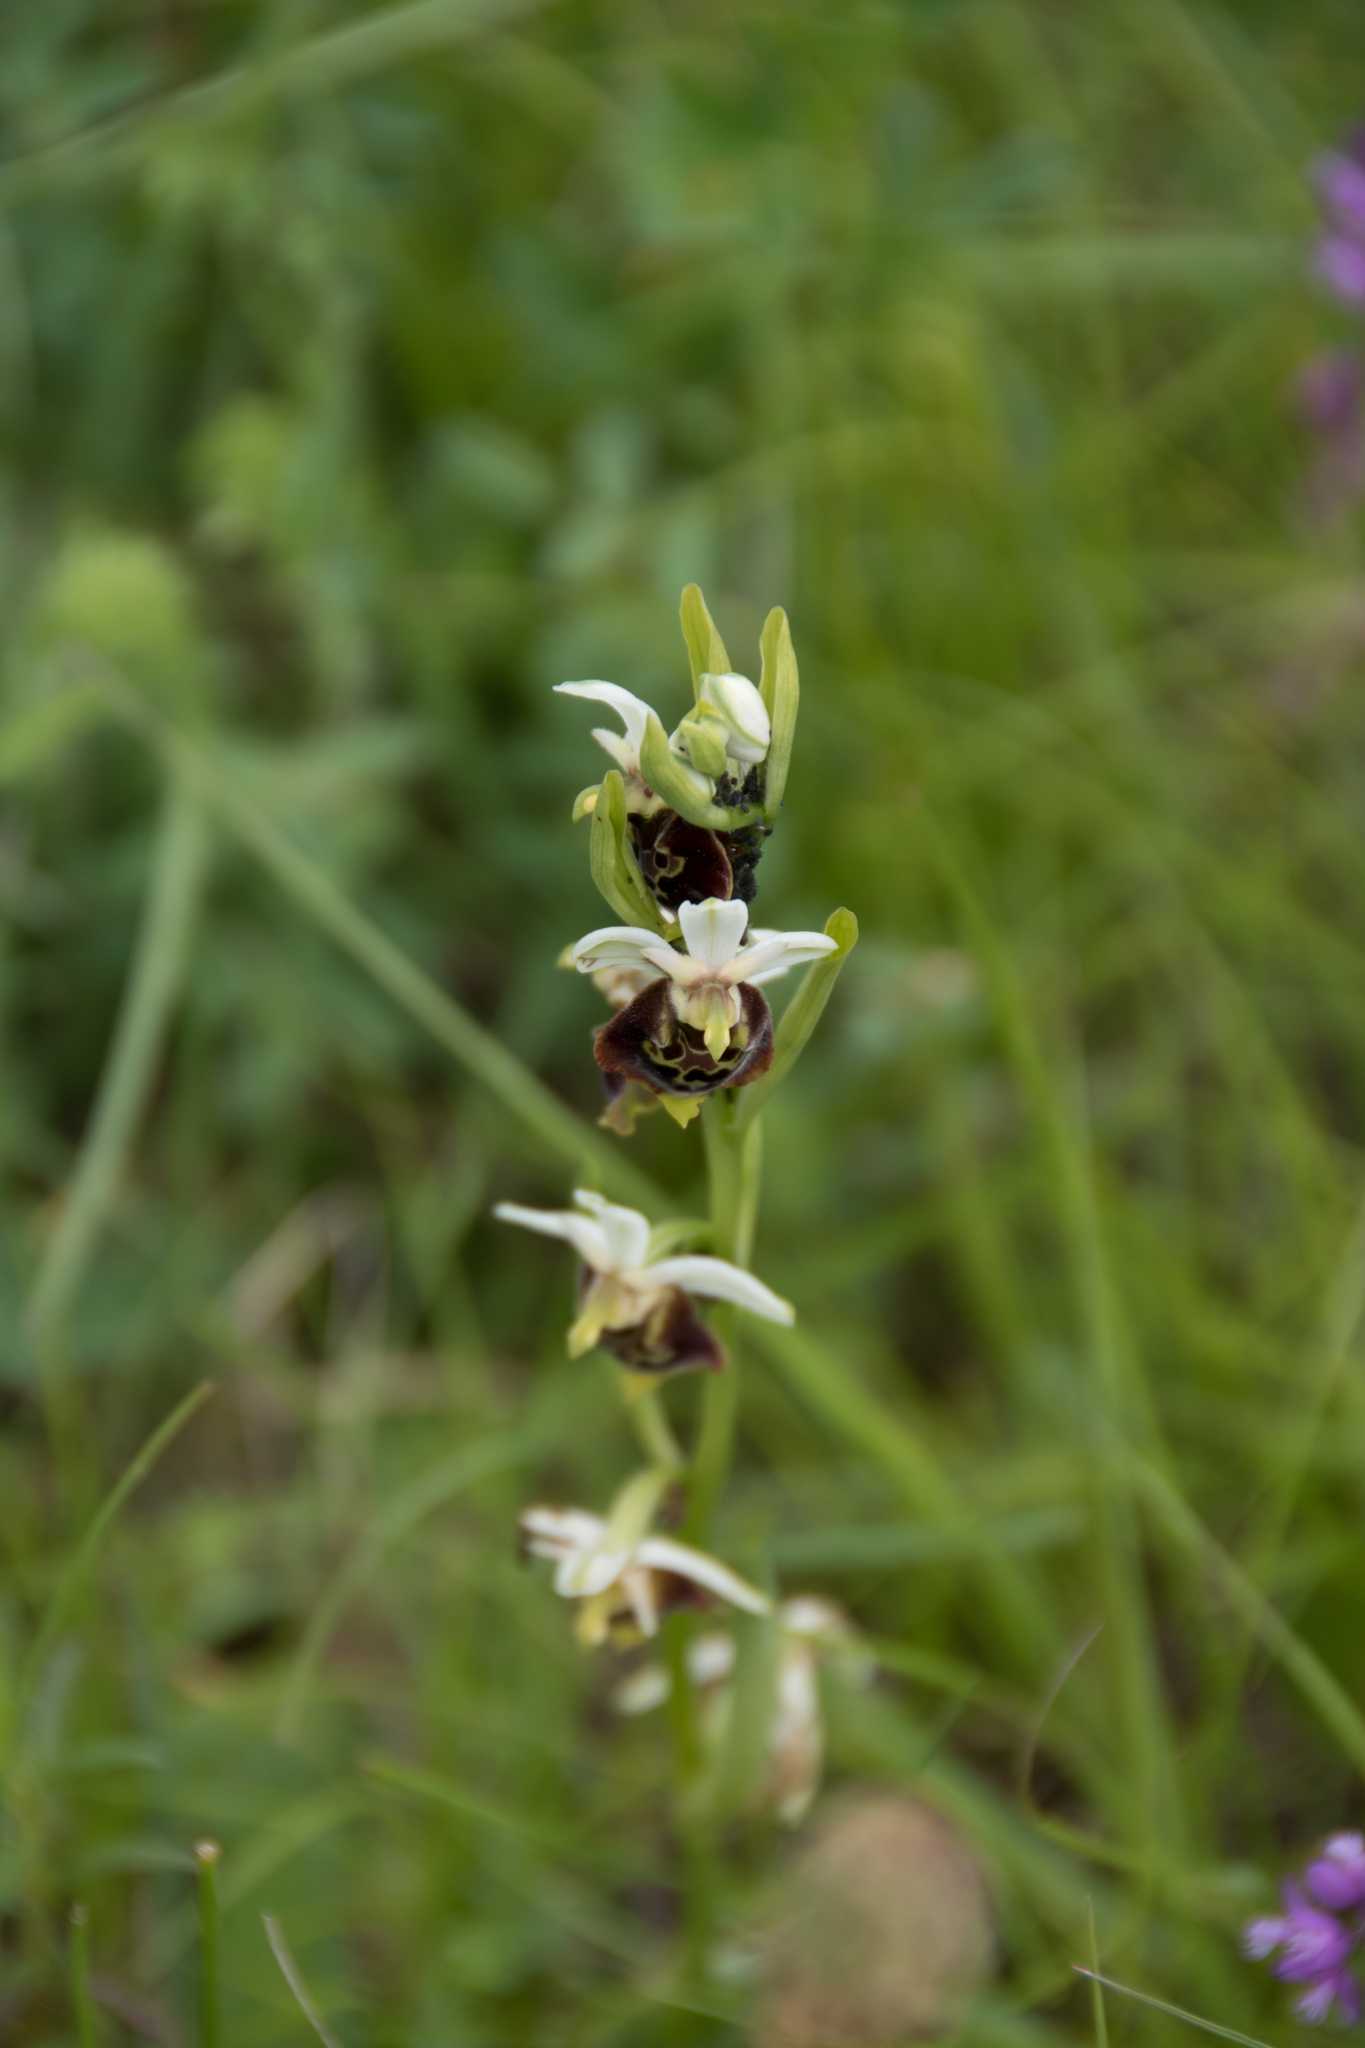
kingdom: Plantae
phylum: Tracheophyta
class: Liliopsida
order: Asparagales
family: Orchidaceae
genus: Ophrys
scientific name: Ophrys holosericea
